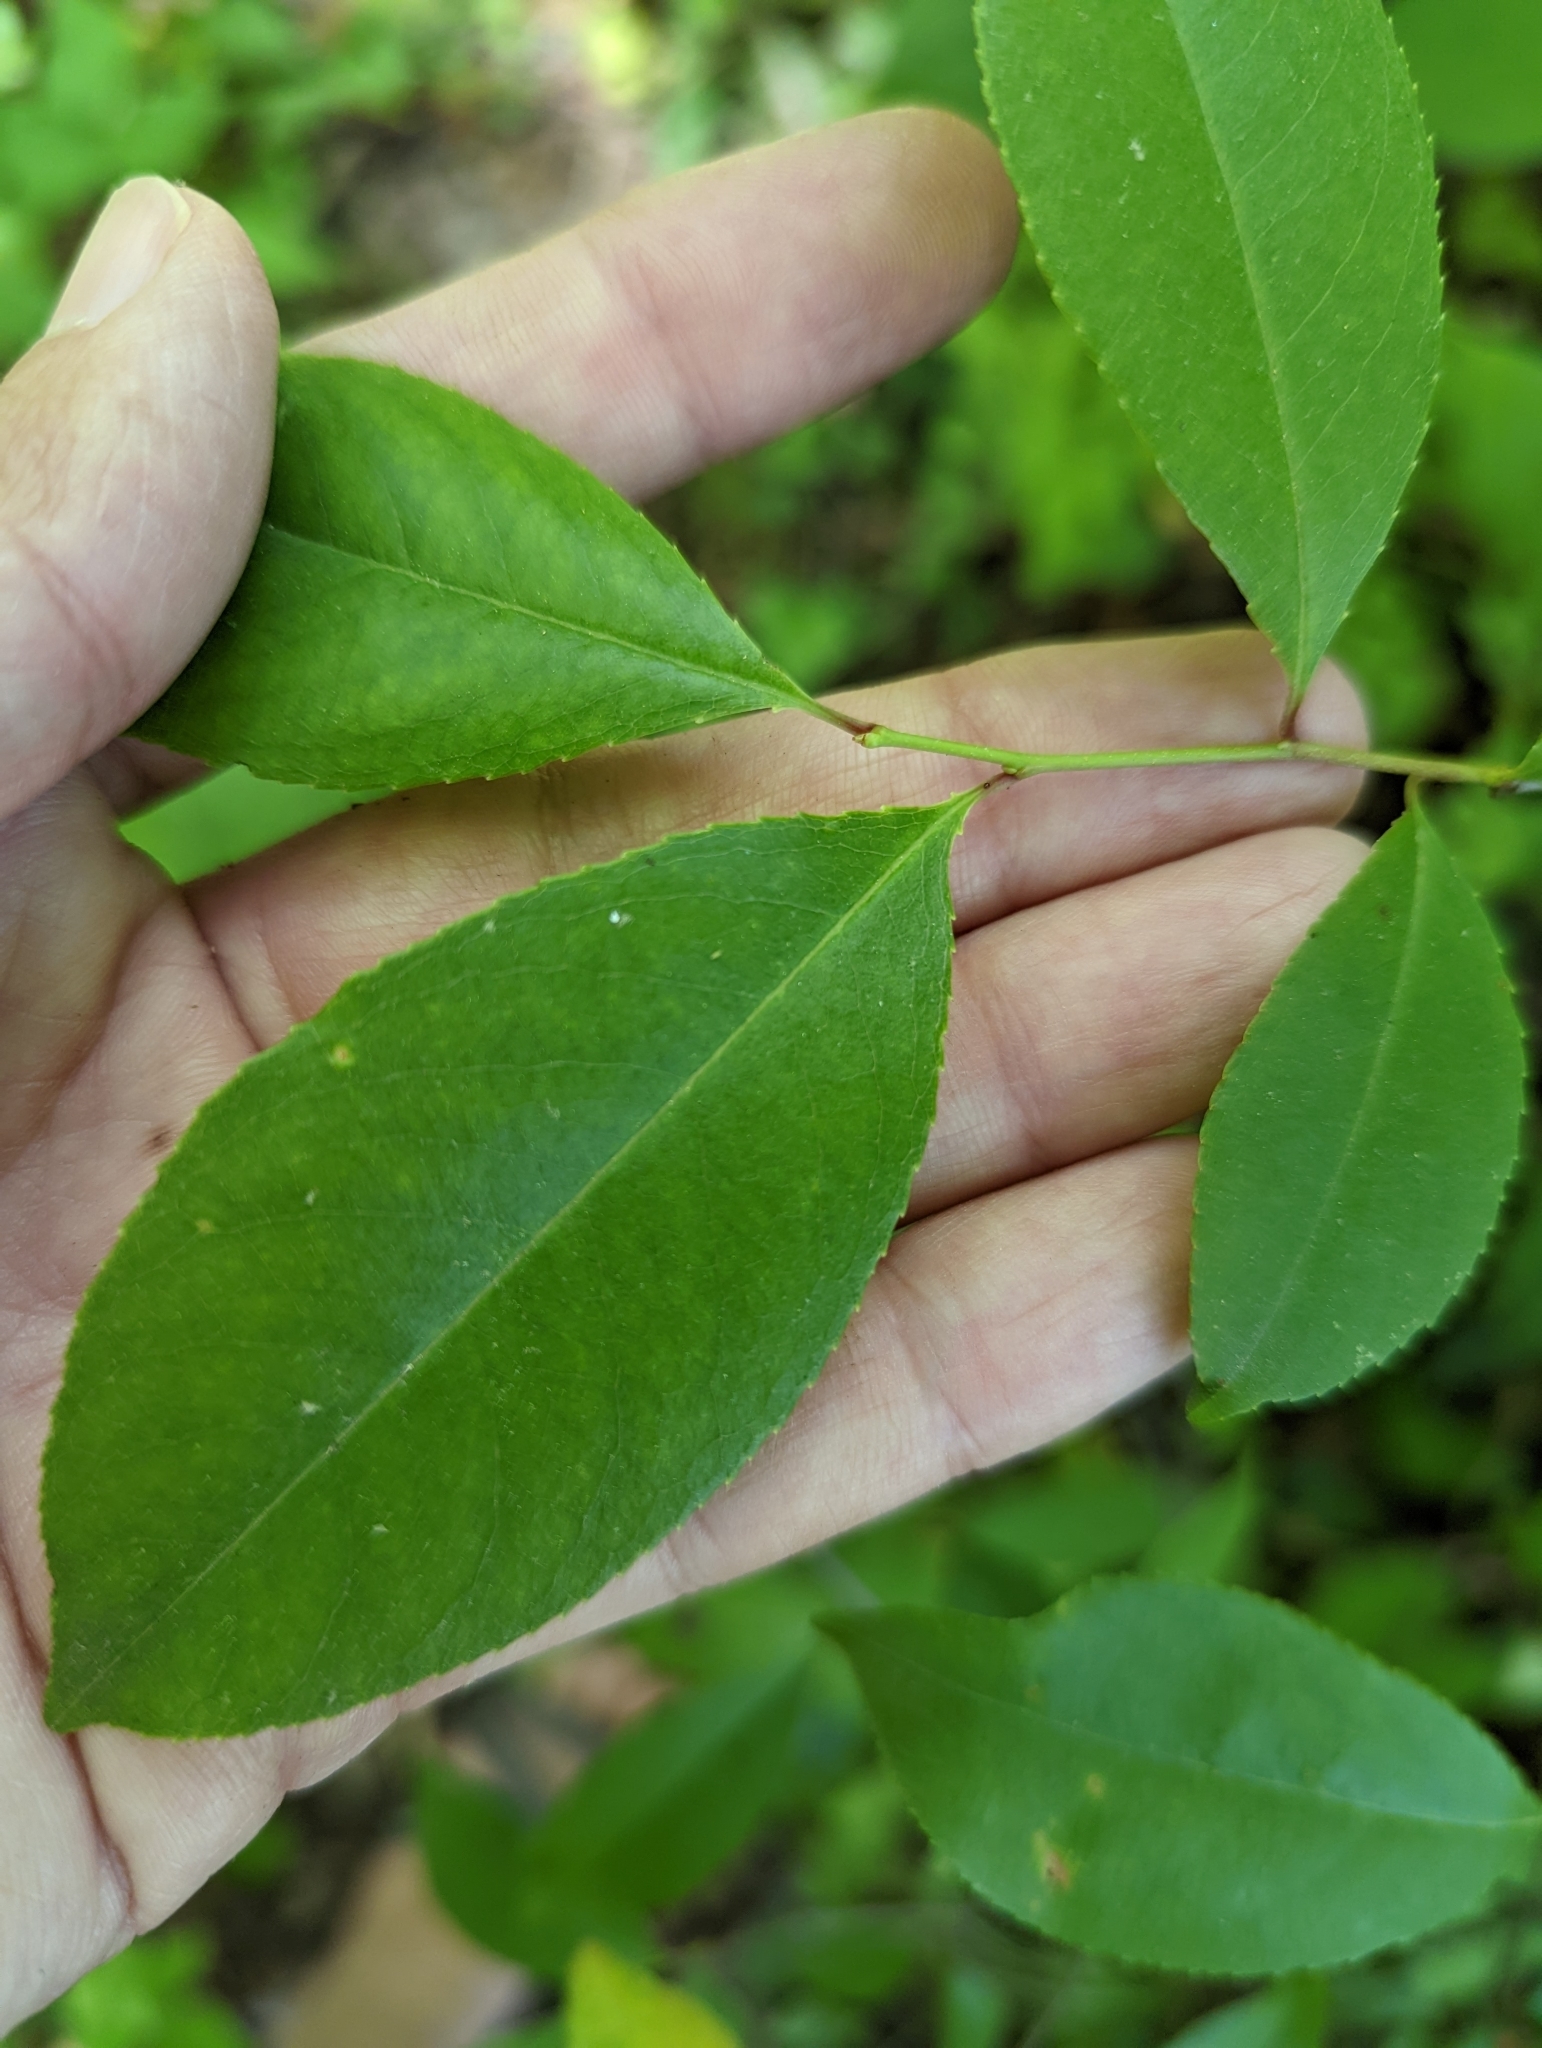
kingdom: Plantae
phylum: Tracheophyta
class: Magnoliopsida
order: Rosales
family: Rosaceae
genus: Prunus
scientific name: Prunus serotina
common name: Black cherry
